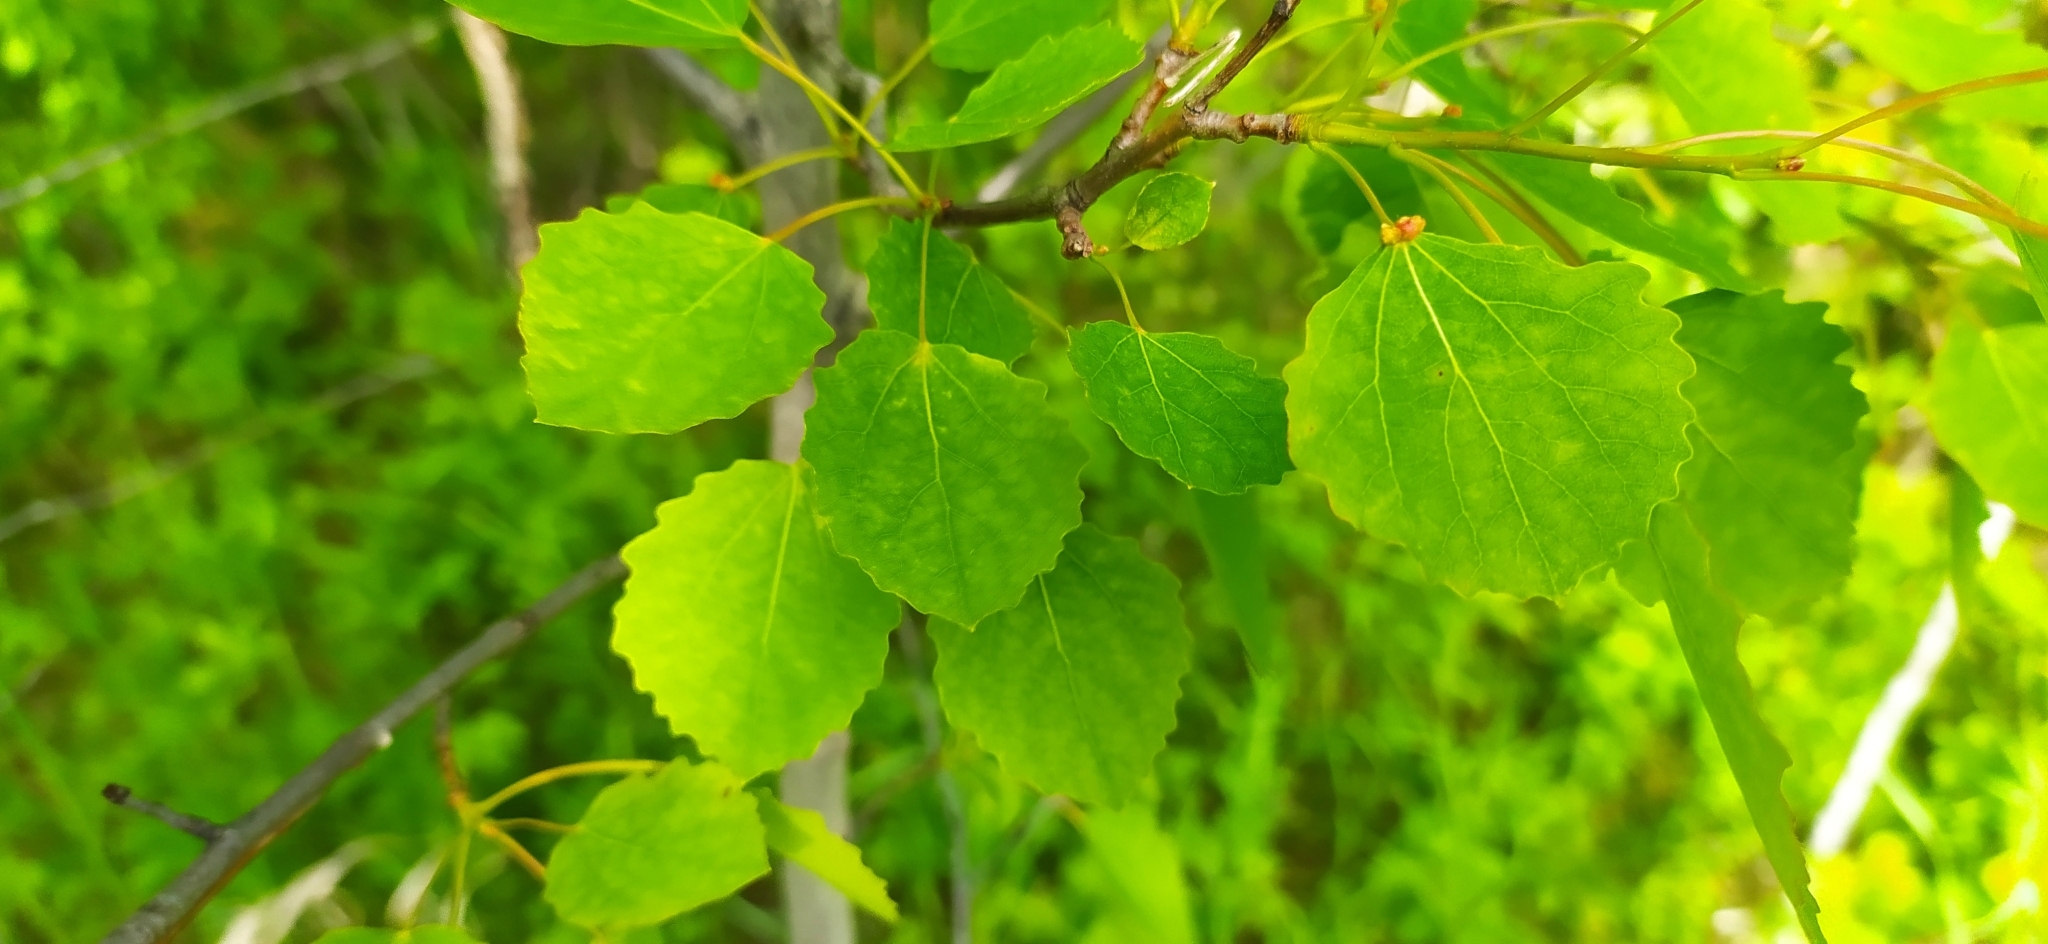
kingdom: Plantae
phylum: Tracheophyta
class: Magnoliopsida
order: Malpighiales
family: Salicaceae
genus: Populus
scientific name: Populus tremula
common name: European aspen
